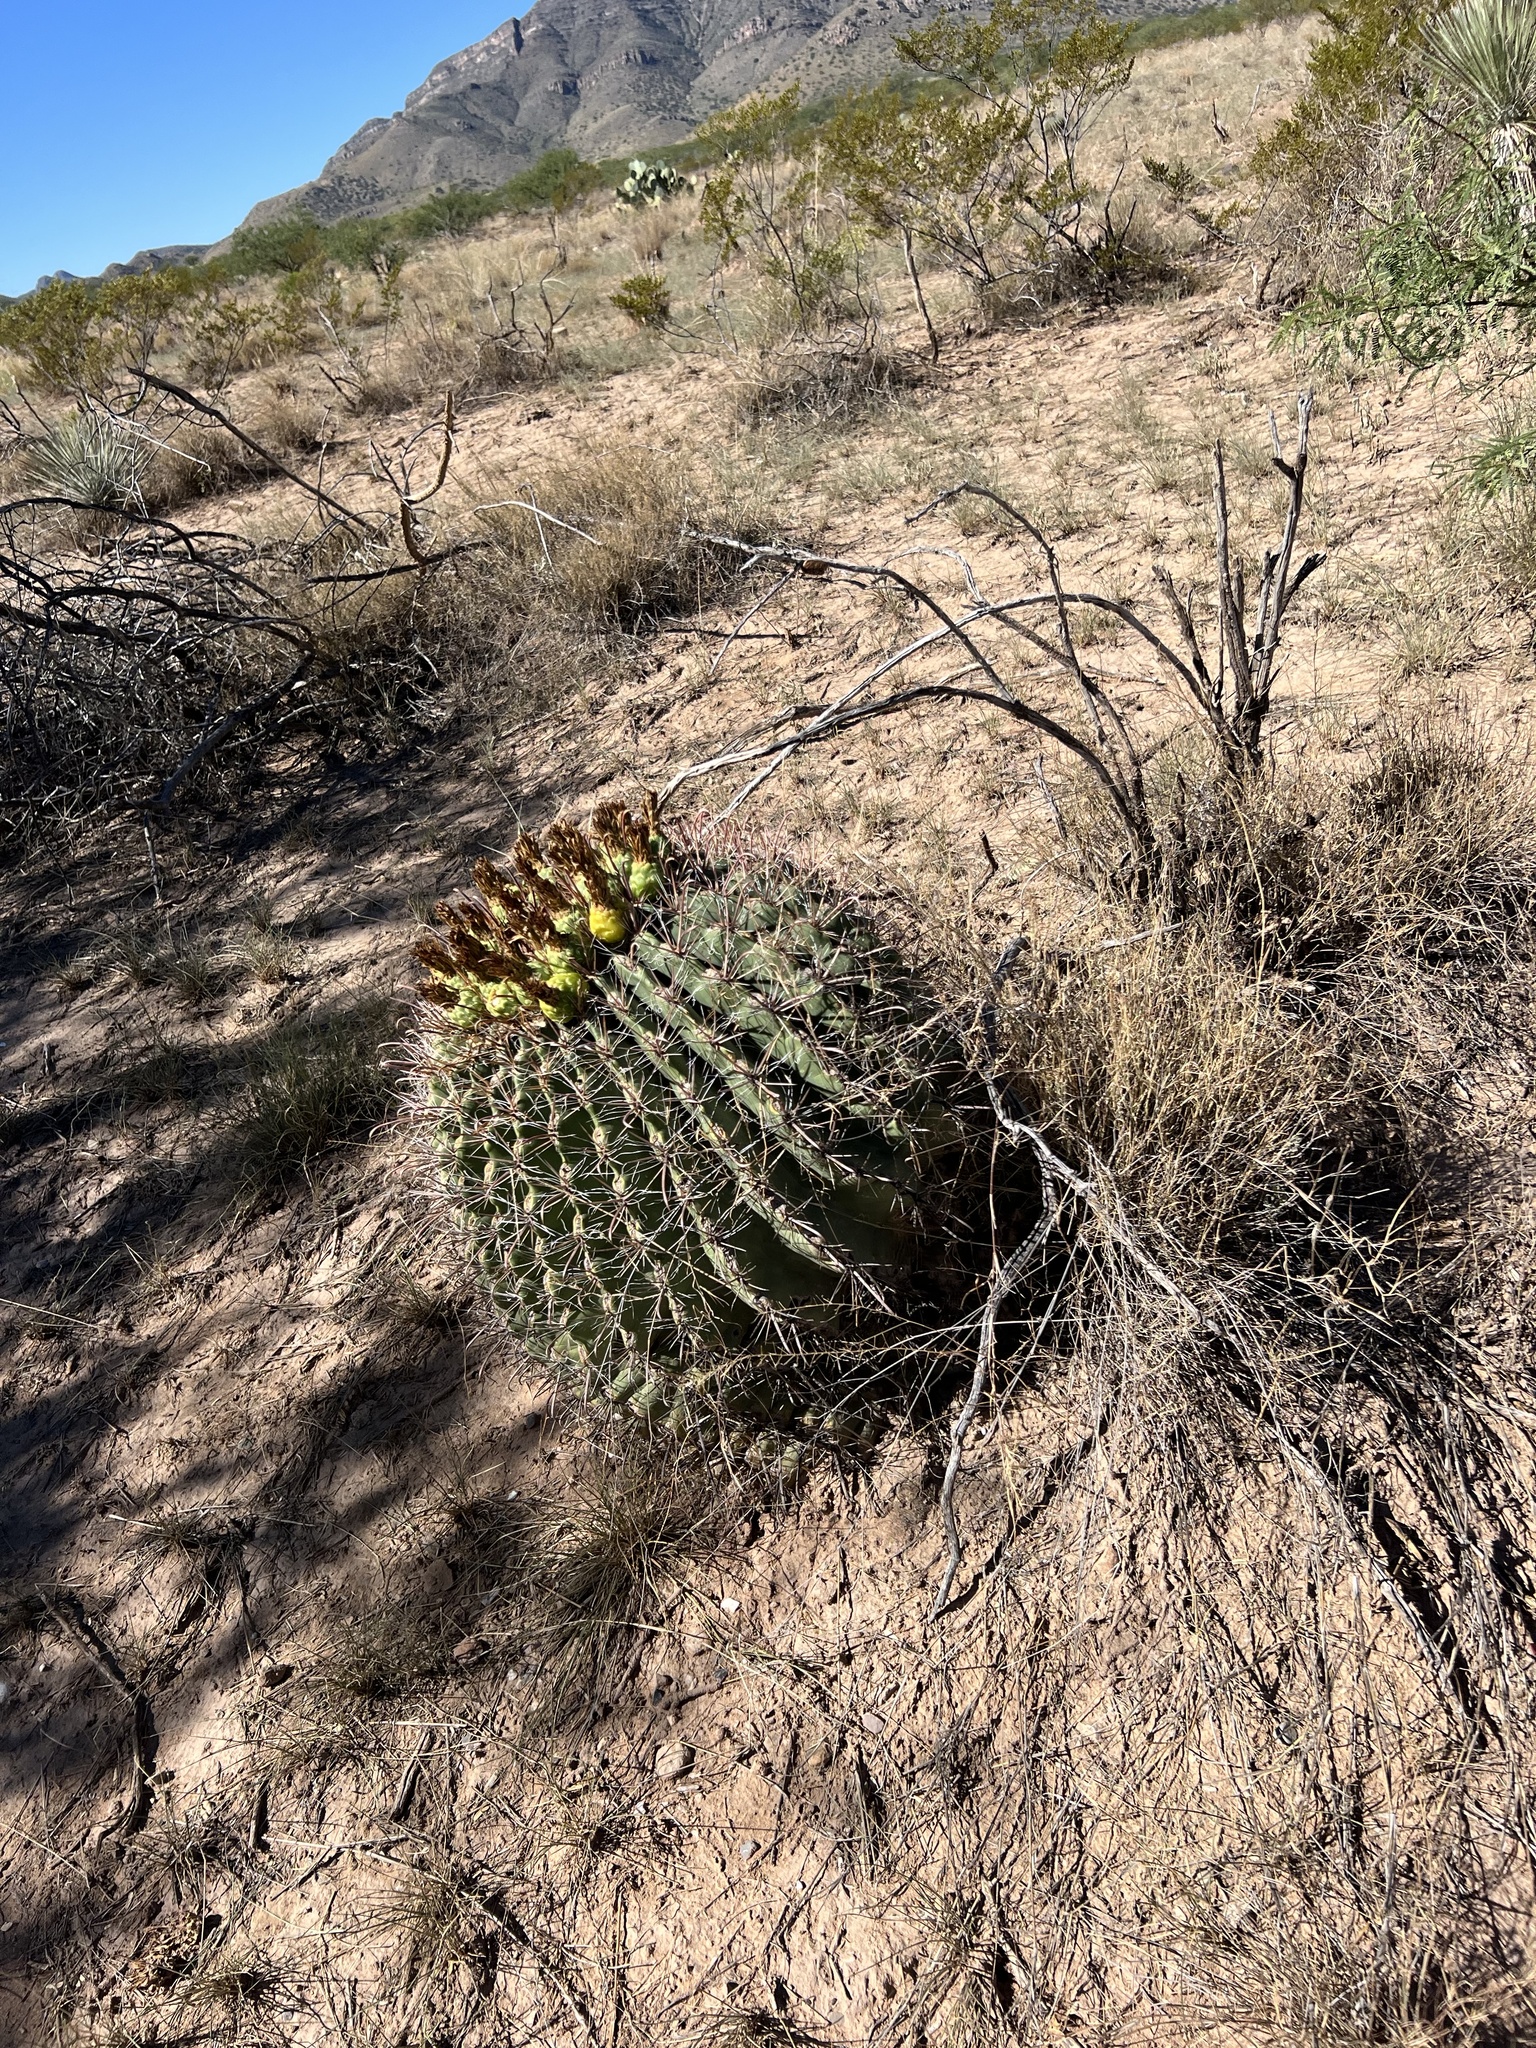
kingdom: Plantae
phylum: Tracheophyta
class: Magnoliopsida
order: Caryophyllales
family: Cactaceae
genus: Ferocactus
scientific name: Ferocactus wislizeni
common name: Candy barrel cactus
